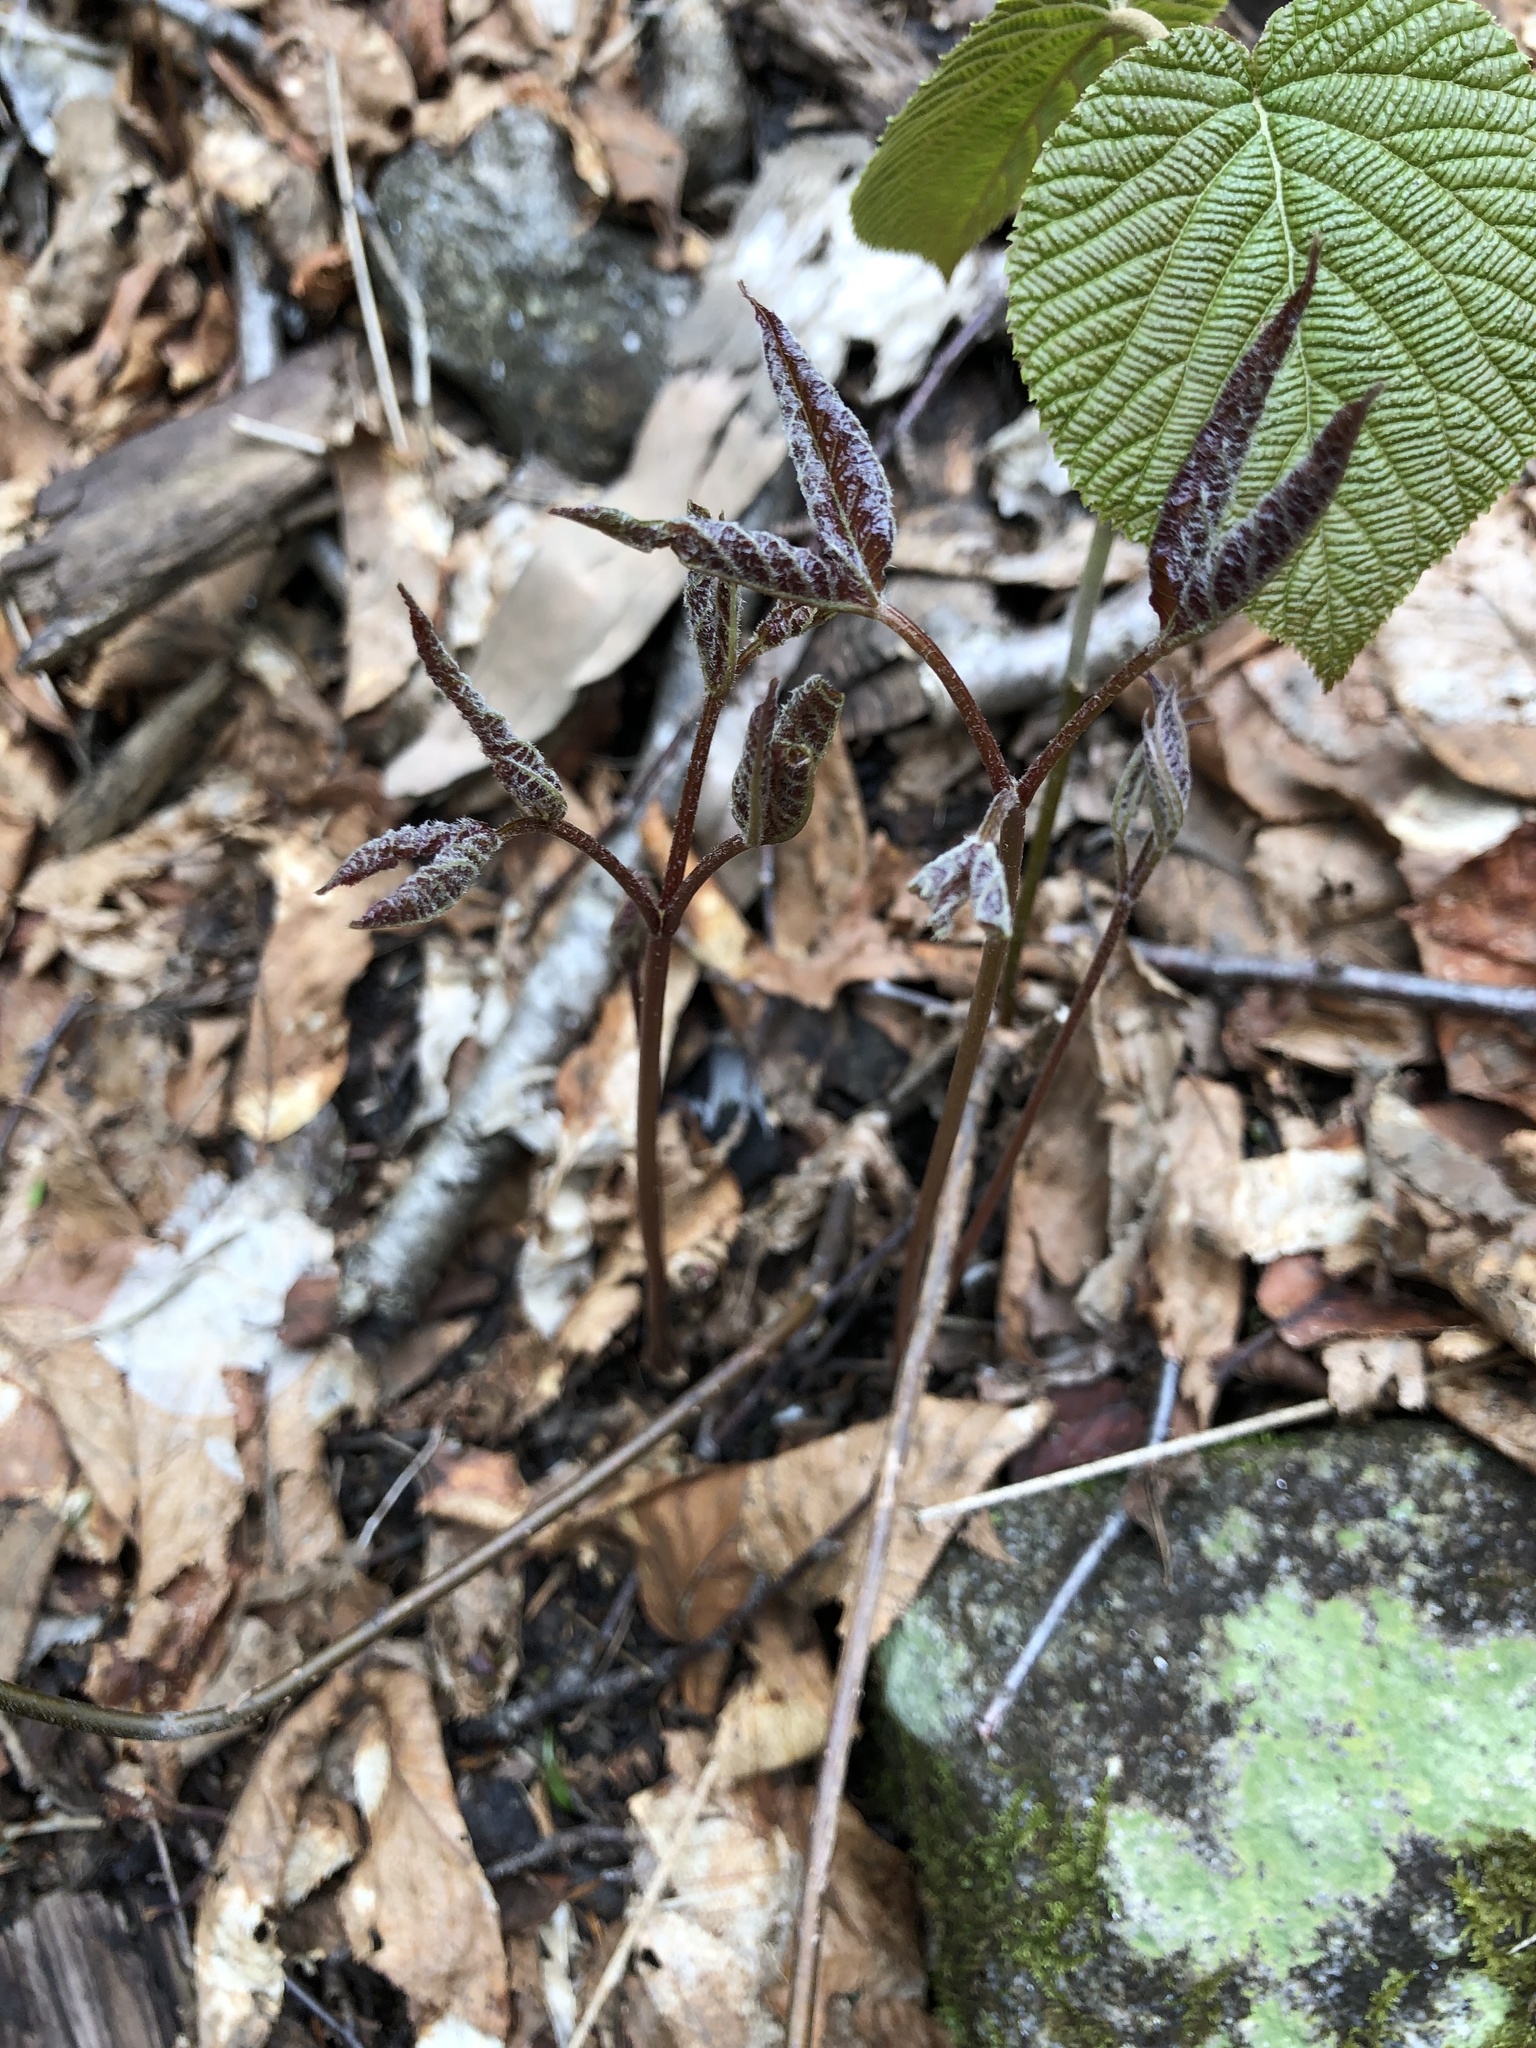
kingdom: Plantae
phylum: Tracheophyta
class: Magnoliopsida
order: Apiales
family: Araliaceae
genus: Aralia
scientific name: Aralia nudicaulis
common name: Wild sarsaparilla
